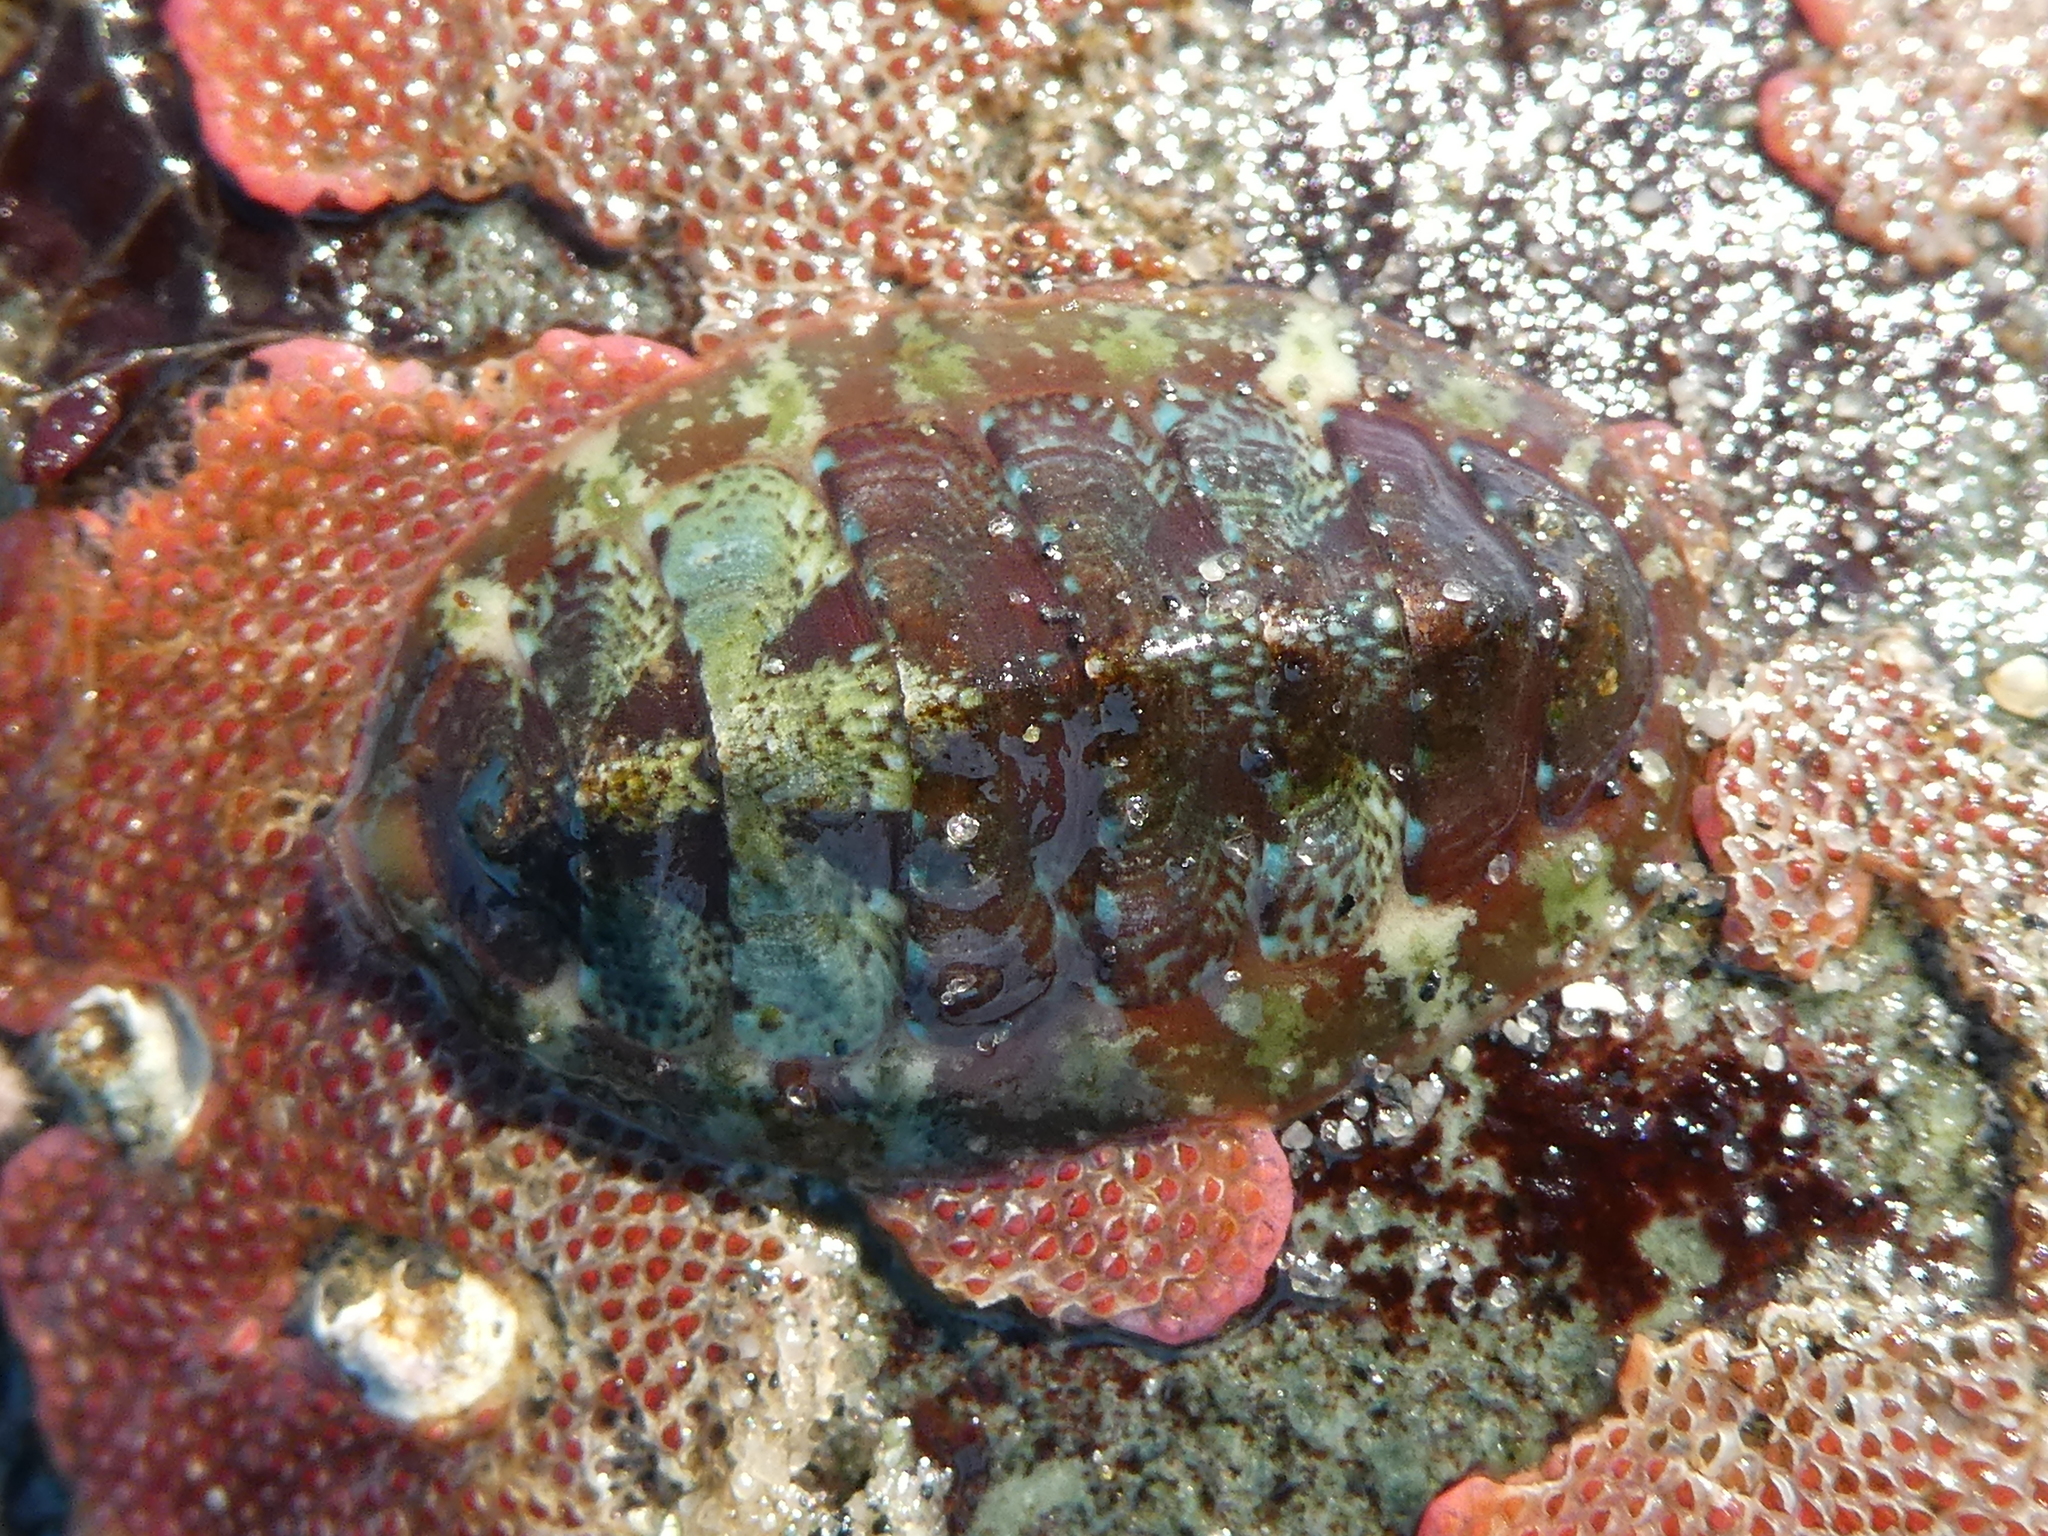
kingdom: Animalia
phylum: Mollusca
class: Polyplacophora
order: Chitonida
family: Mopaliidae
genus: Dendrochiton
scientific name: Dendrochiton flectens
